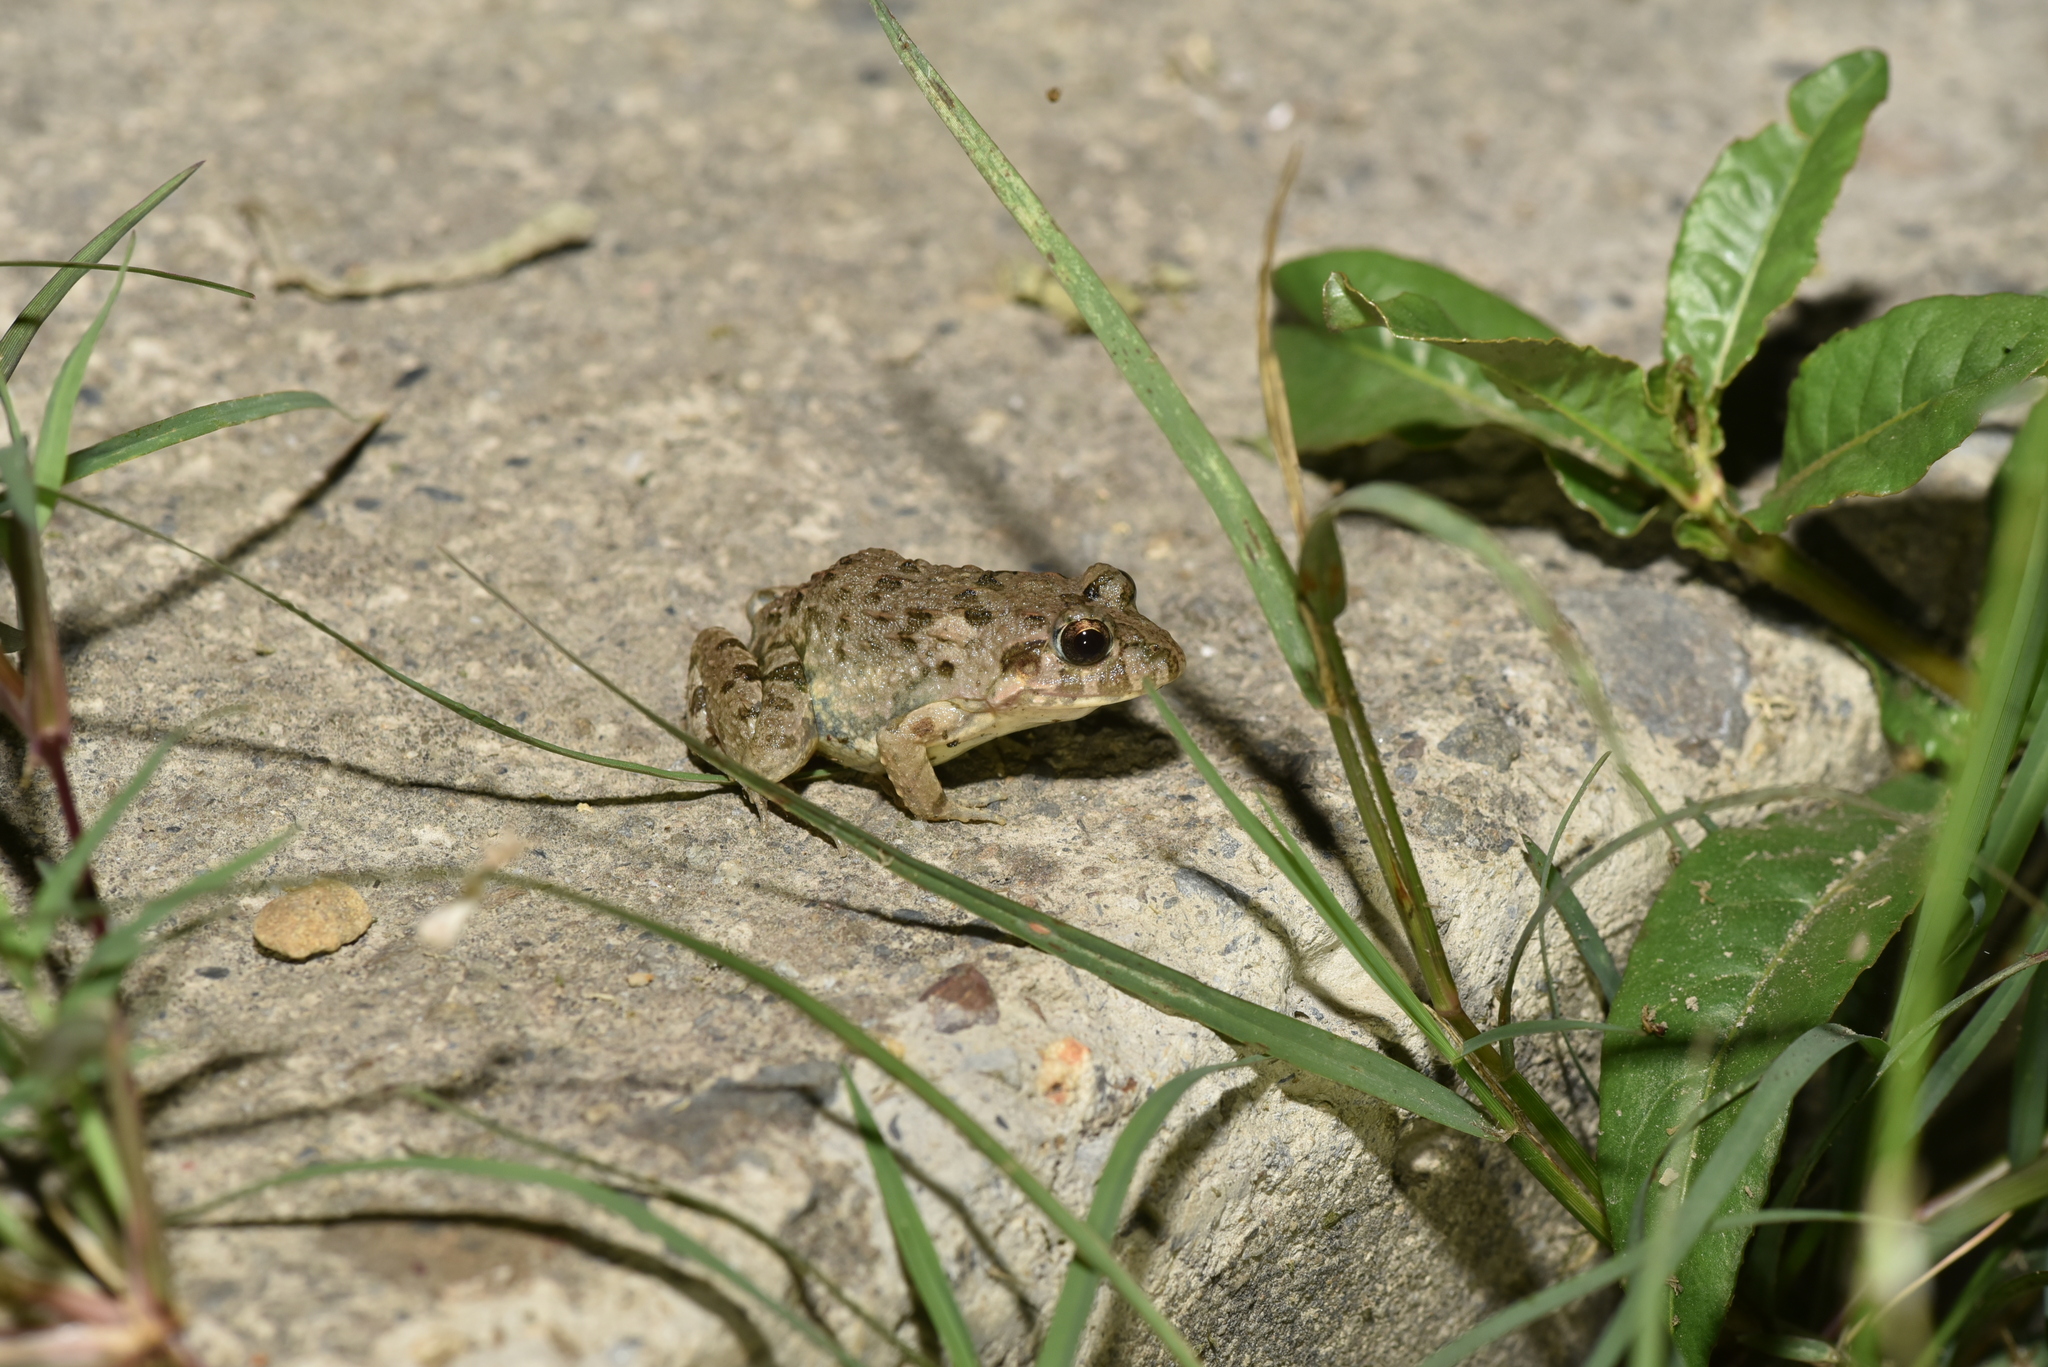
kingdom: Animalia
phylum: Chordata
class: Amphibia
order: Anura
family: Dicroglossidae
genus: Fejervarya
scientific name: Fejervarya limnocharis
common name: Asian grass frog/common pond frog/field frog/grass frog/indian rice frog
